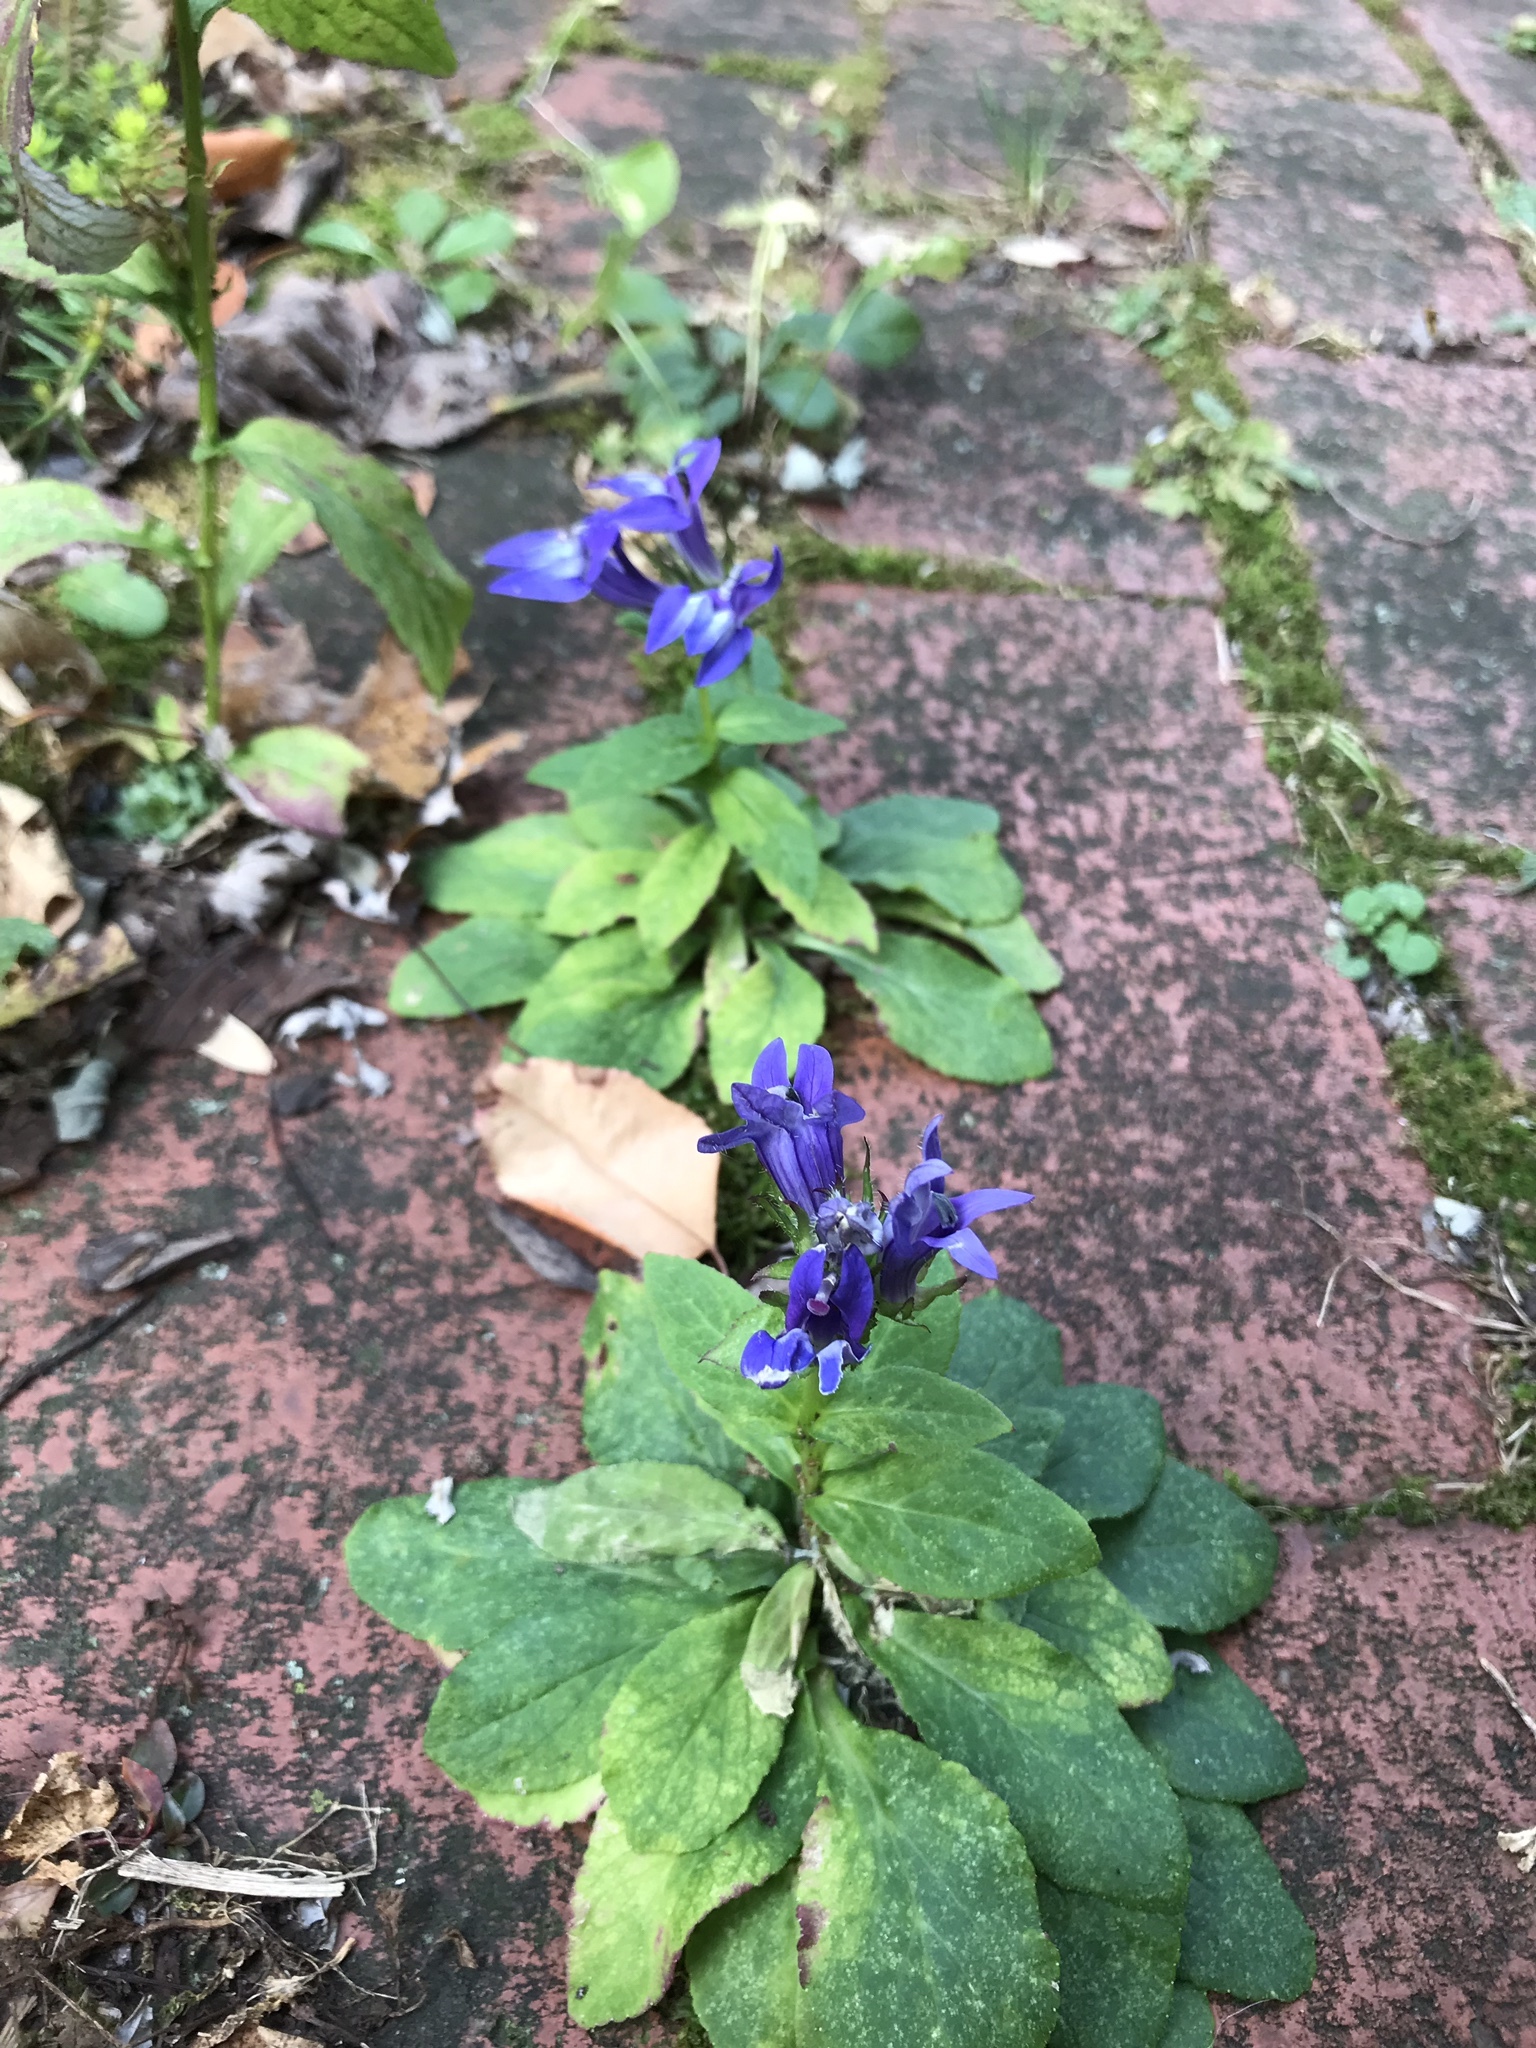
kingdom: Plantae
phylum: Tracheophyta
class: Magnoliopsida
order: Asterales
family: Campanulaceae
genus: Lobelia
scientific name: Lobelia siphilitica
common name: Great lobelia
